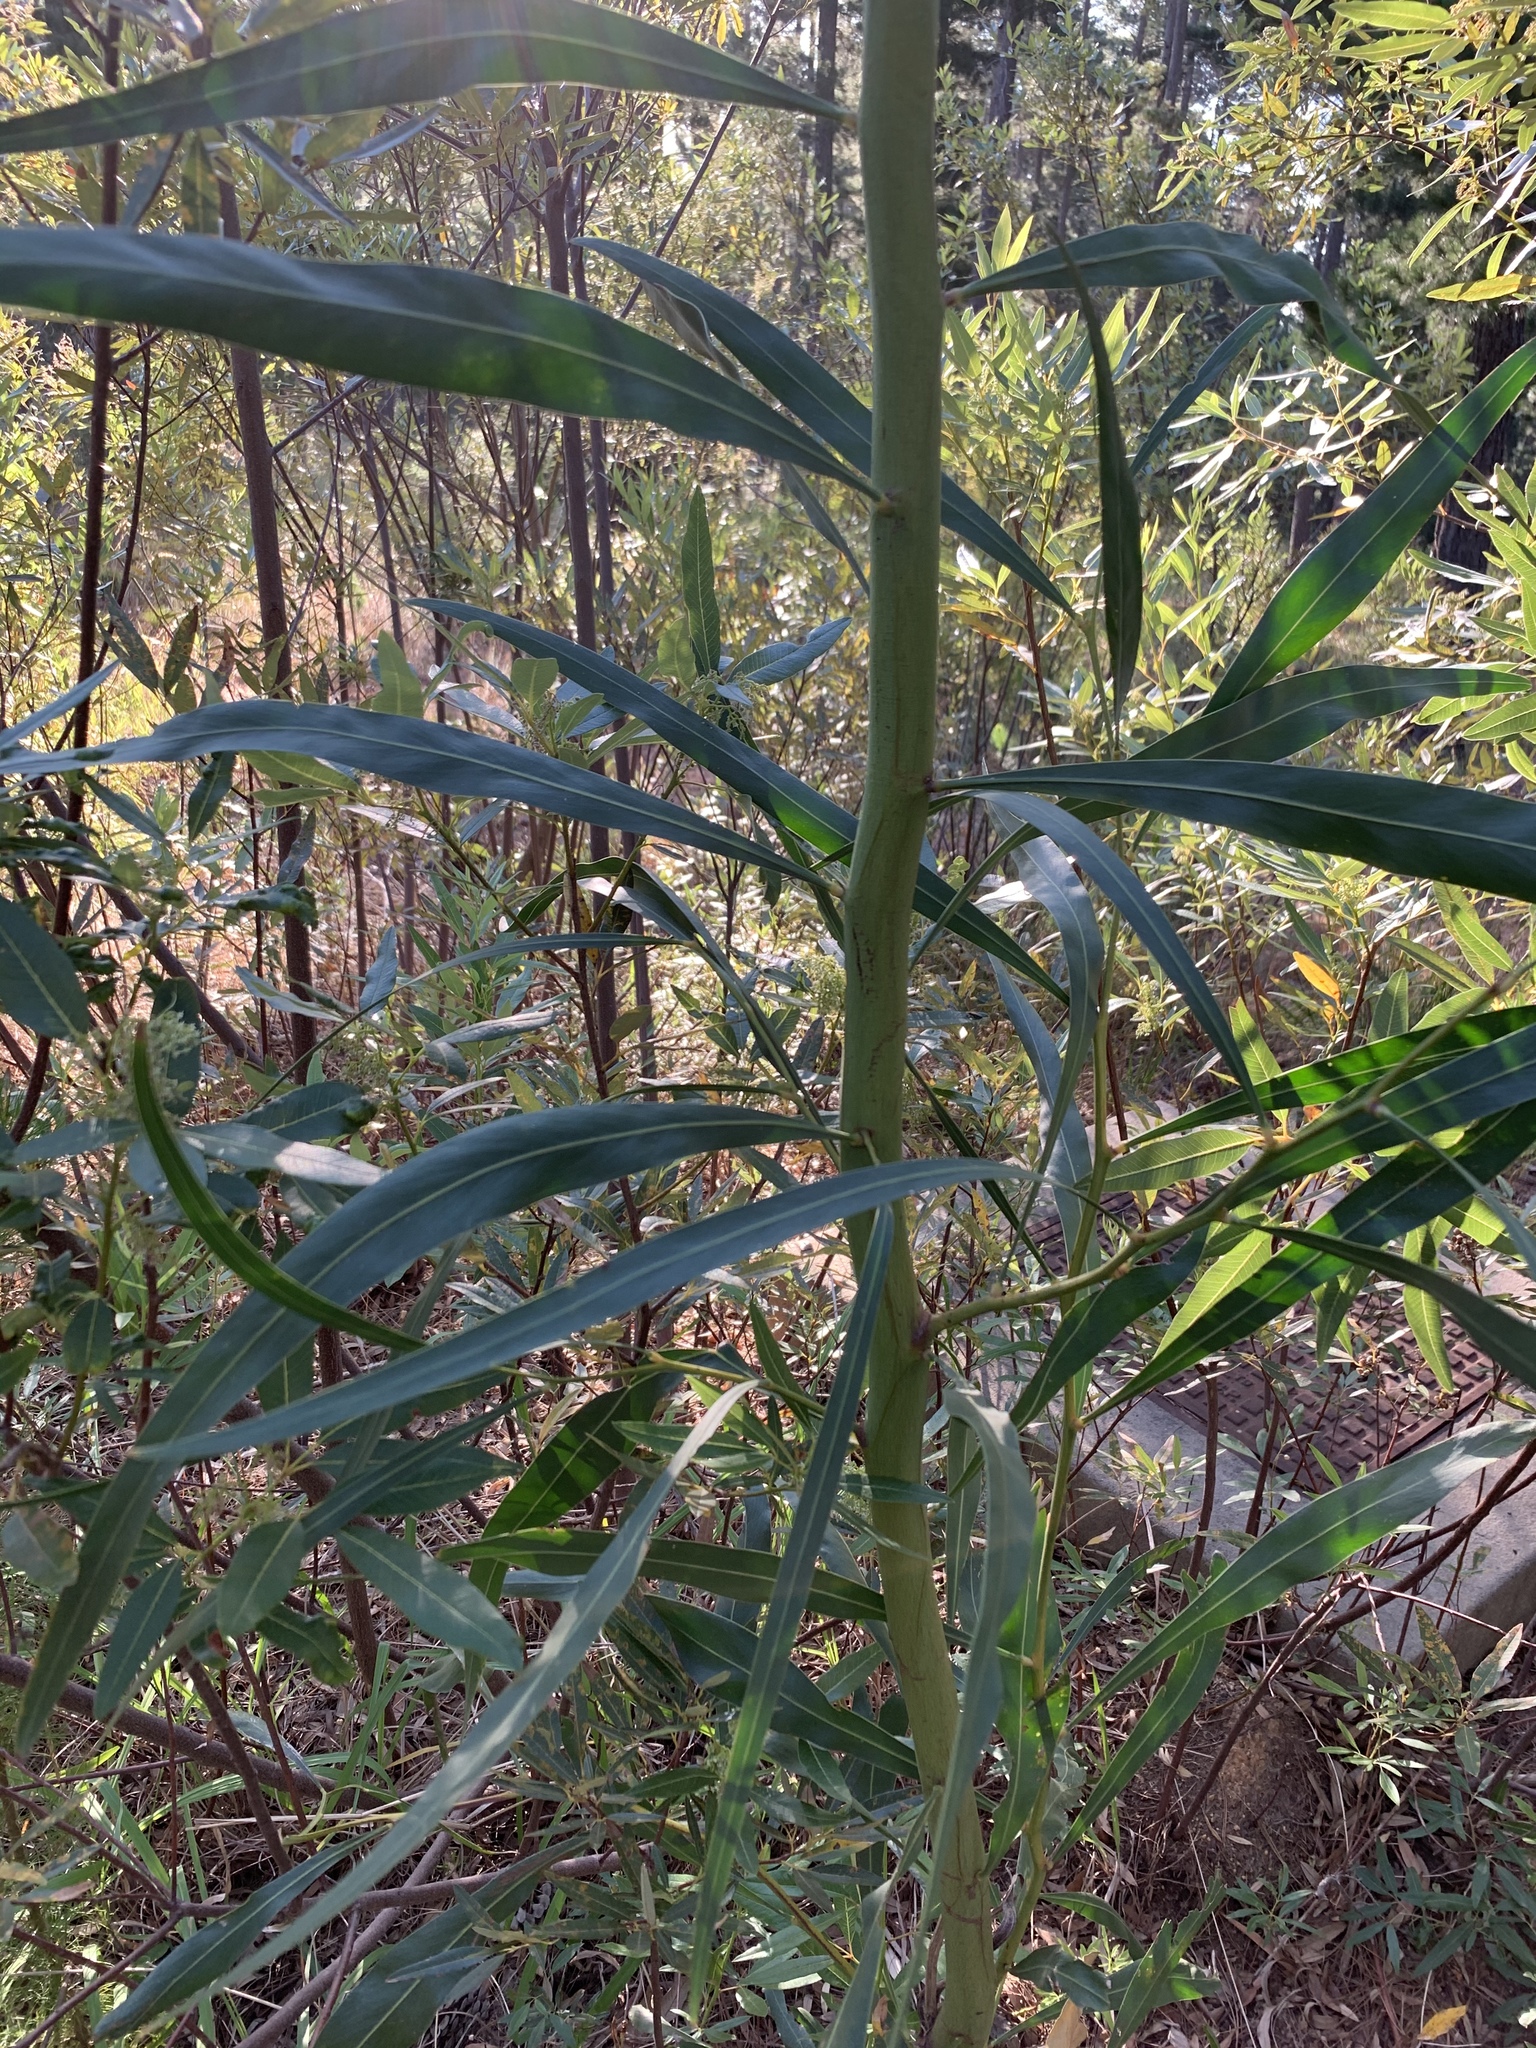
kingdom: Plantae
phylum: Tracheophyta
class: Magnoliopsida
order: Fabales
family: Fabaceae
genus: Acacia
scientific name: Acacia saligna
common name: Orange wattle
